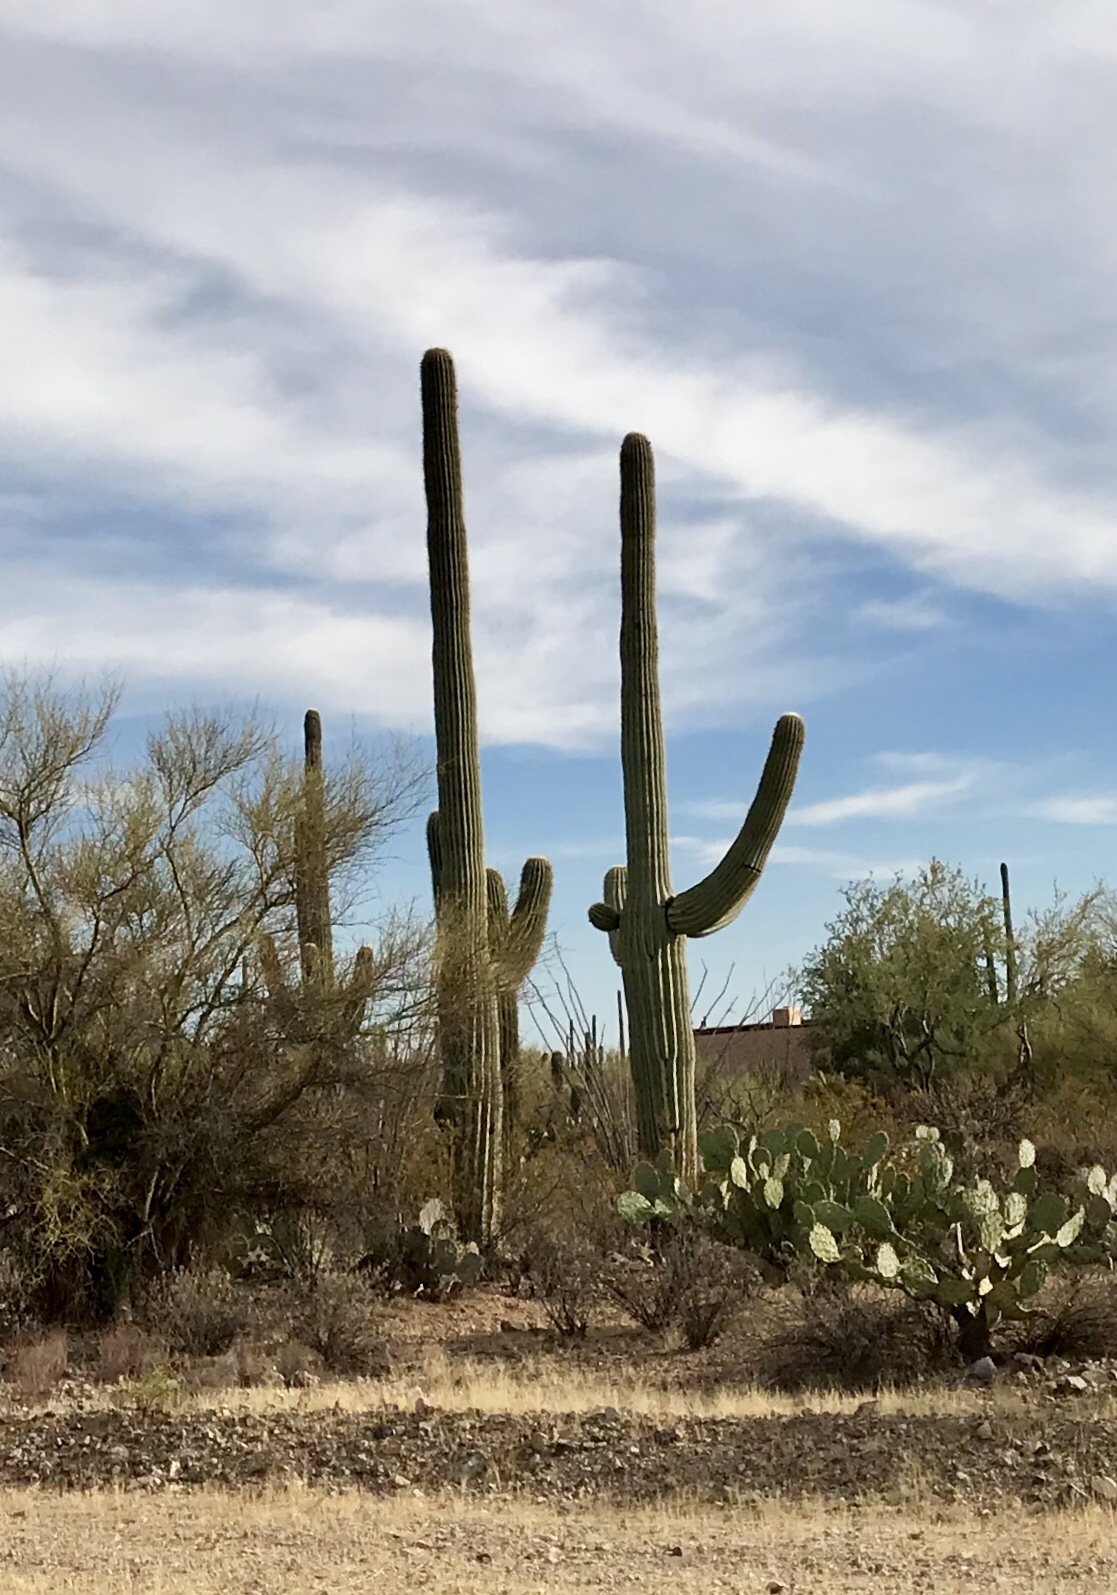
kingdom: Plantae
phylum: Tracheophyta
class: Magnoliopsida
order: Caryophyllales
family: Cactaceae
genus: Carnegiea
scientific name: Carnegiea gigantea
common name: Saguaro
